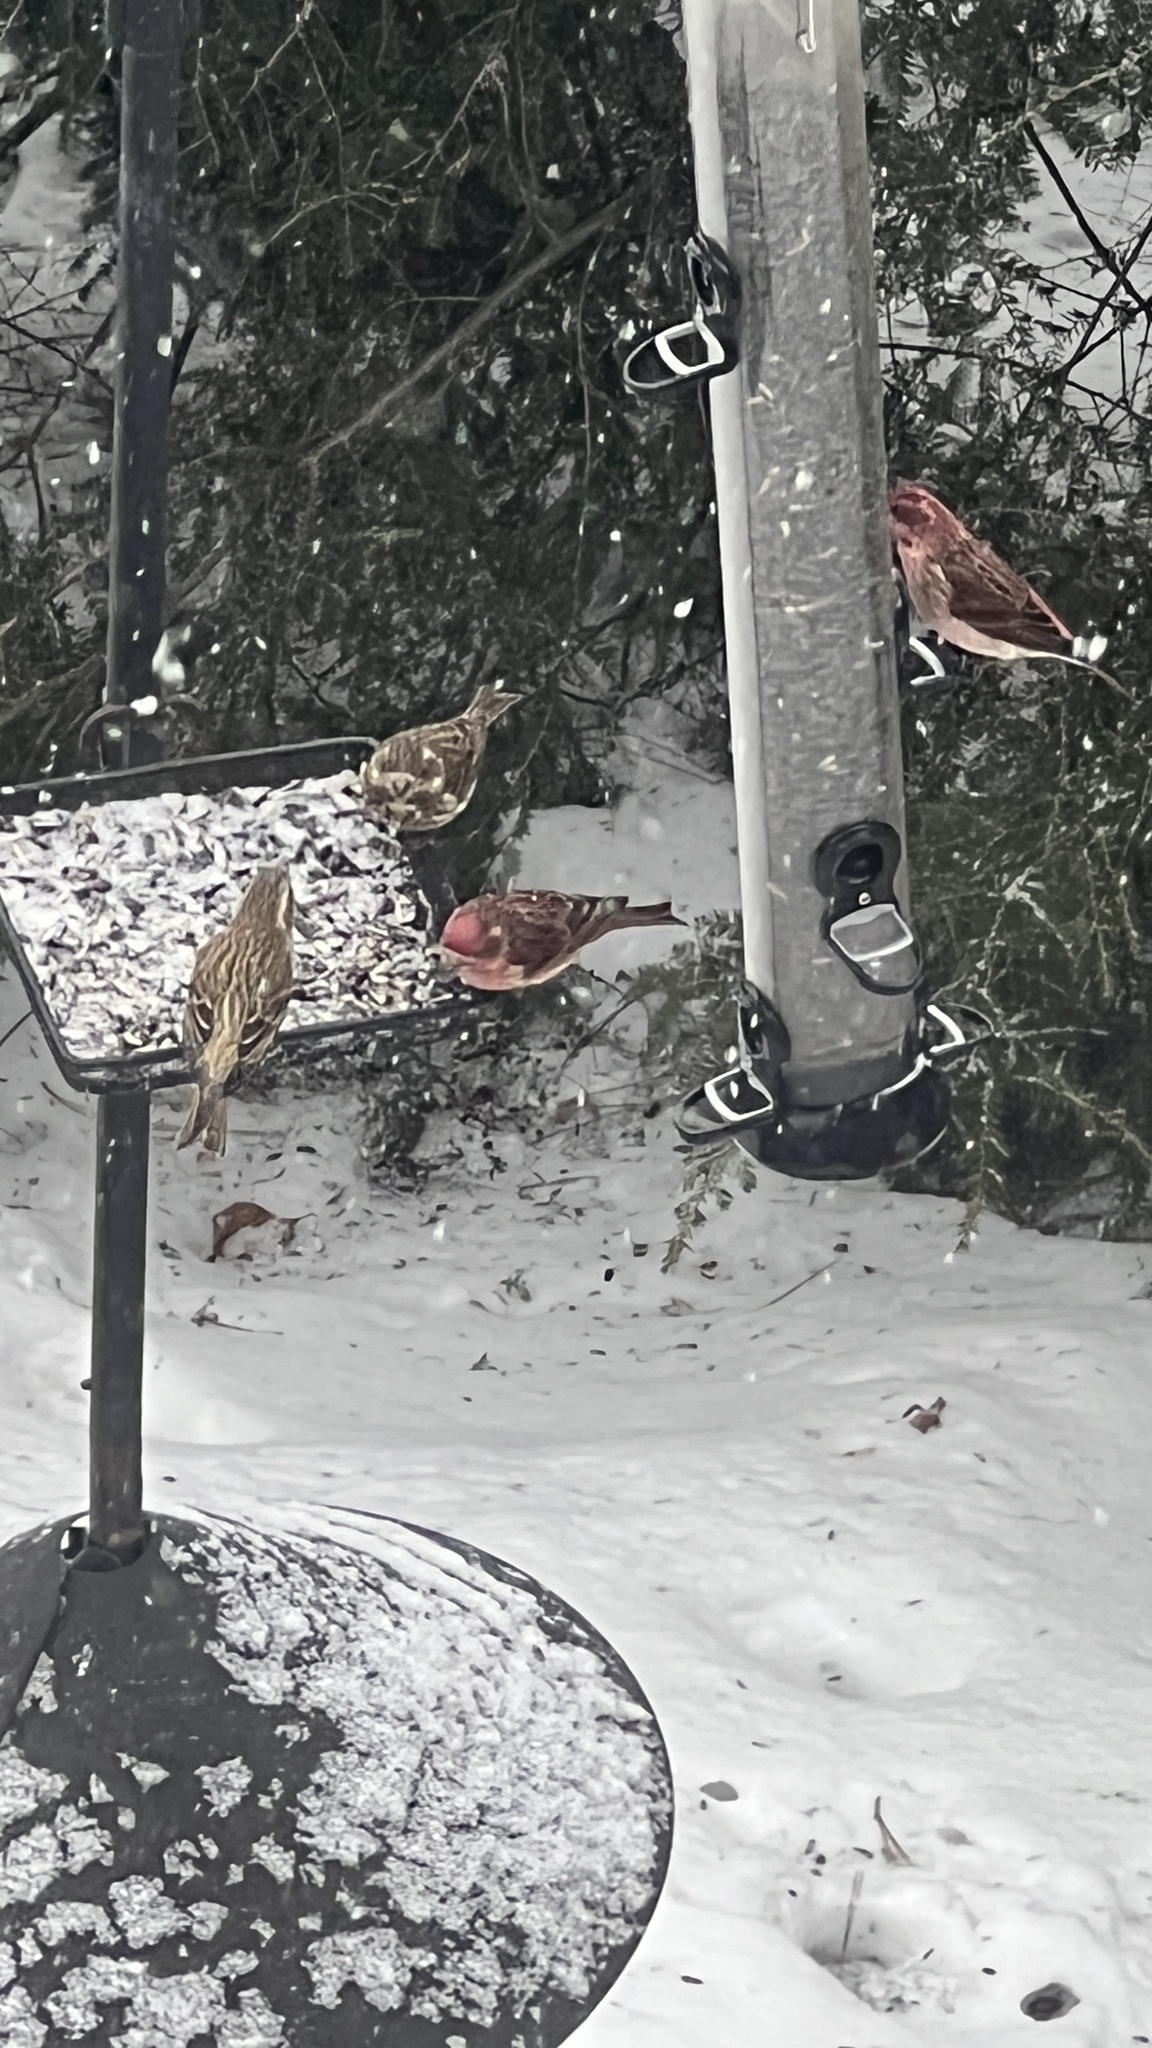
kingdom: Animalia
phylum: Chordata
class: Aves
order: Passeriformes
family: Fringillidae
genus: Haemorhous
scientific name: Haemorhous purpureus
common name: Purple finch
